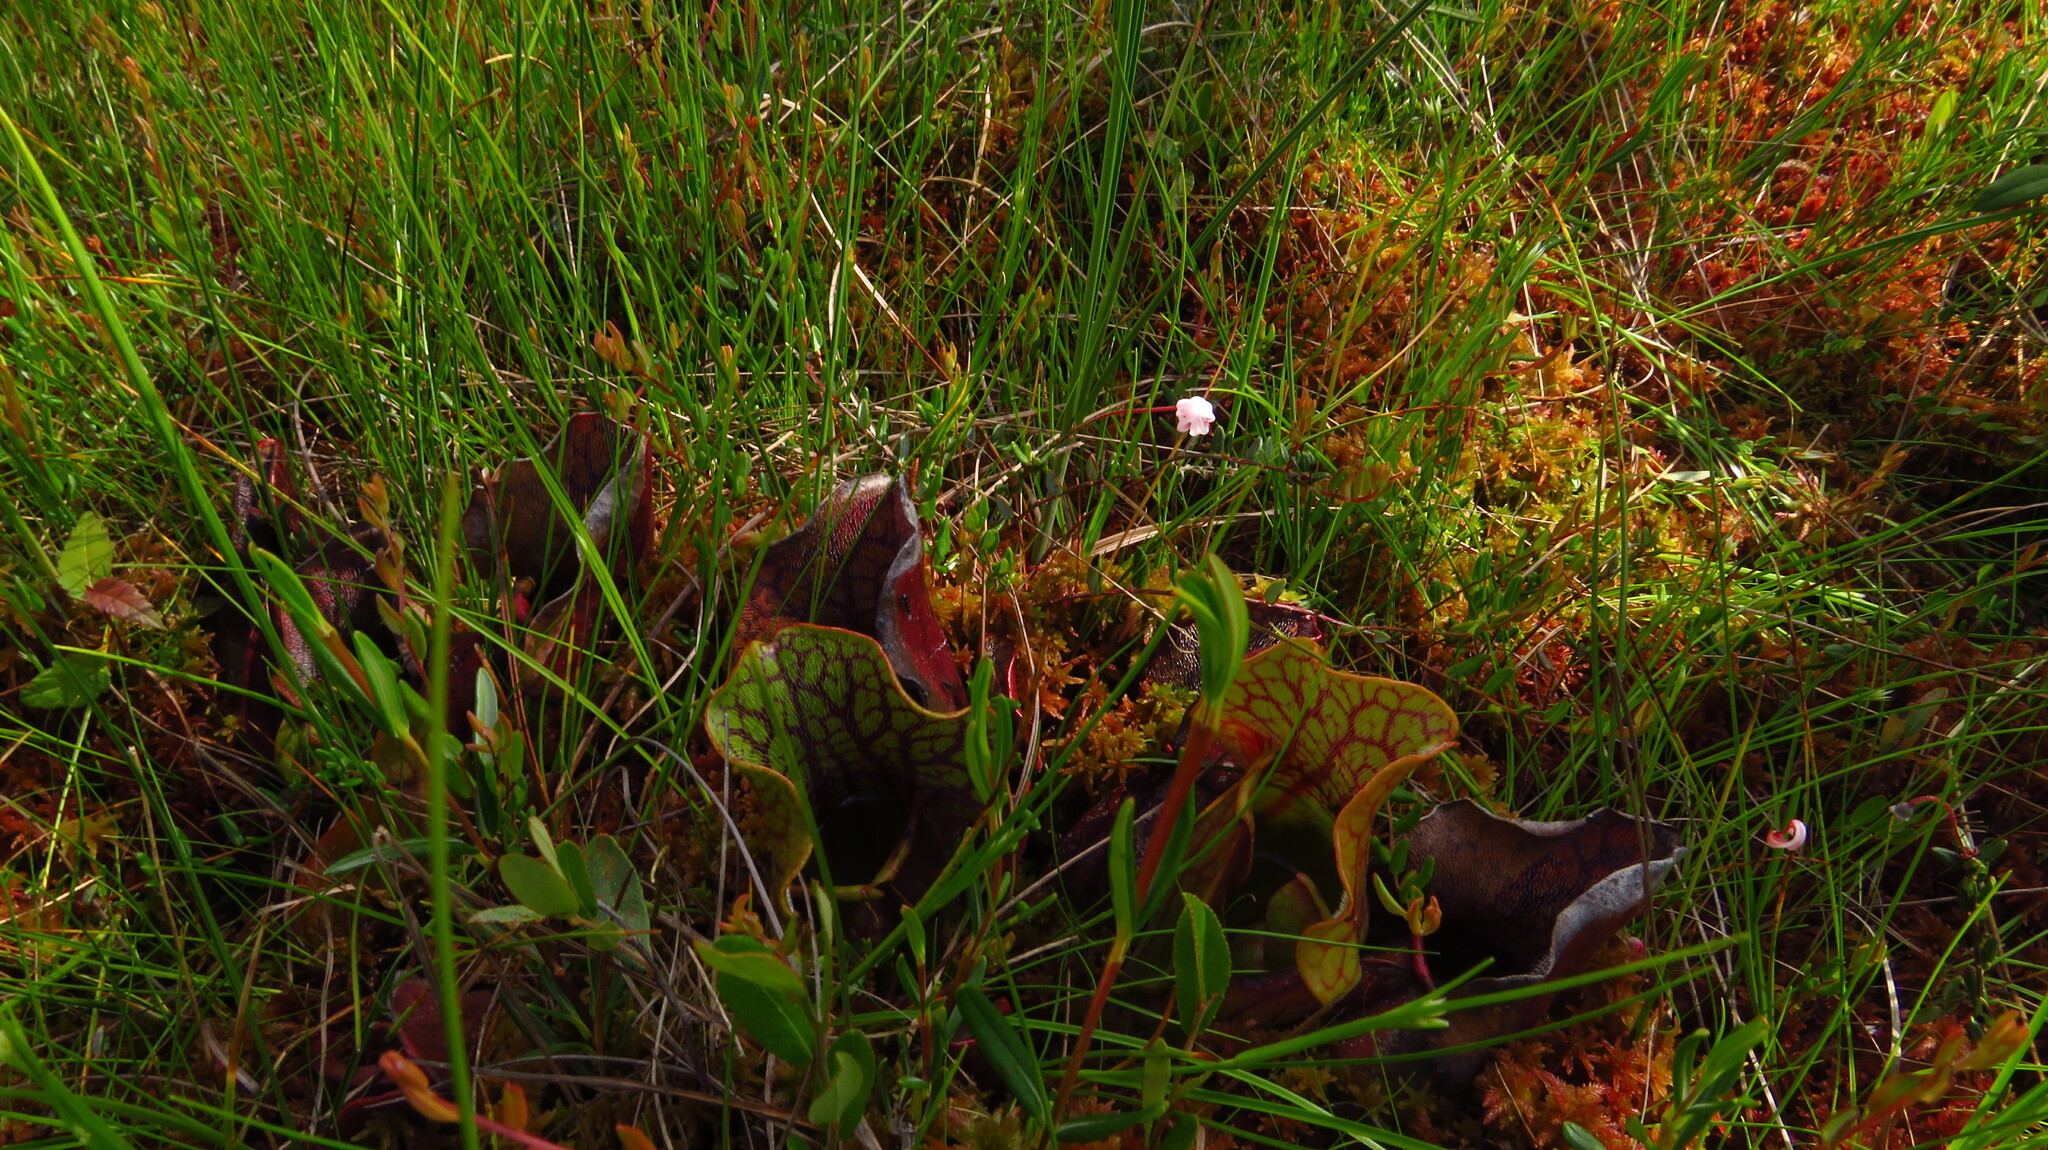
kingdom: Plantae
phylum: Tracheophyta
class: Magnoliopsida
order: Ericales
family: Sarraceniaceae
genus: Sarracenia
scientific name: Sarracenia purpurea
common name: Pitcherplant
